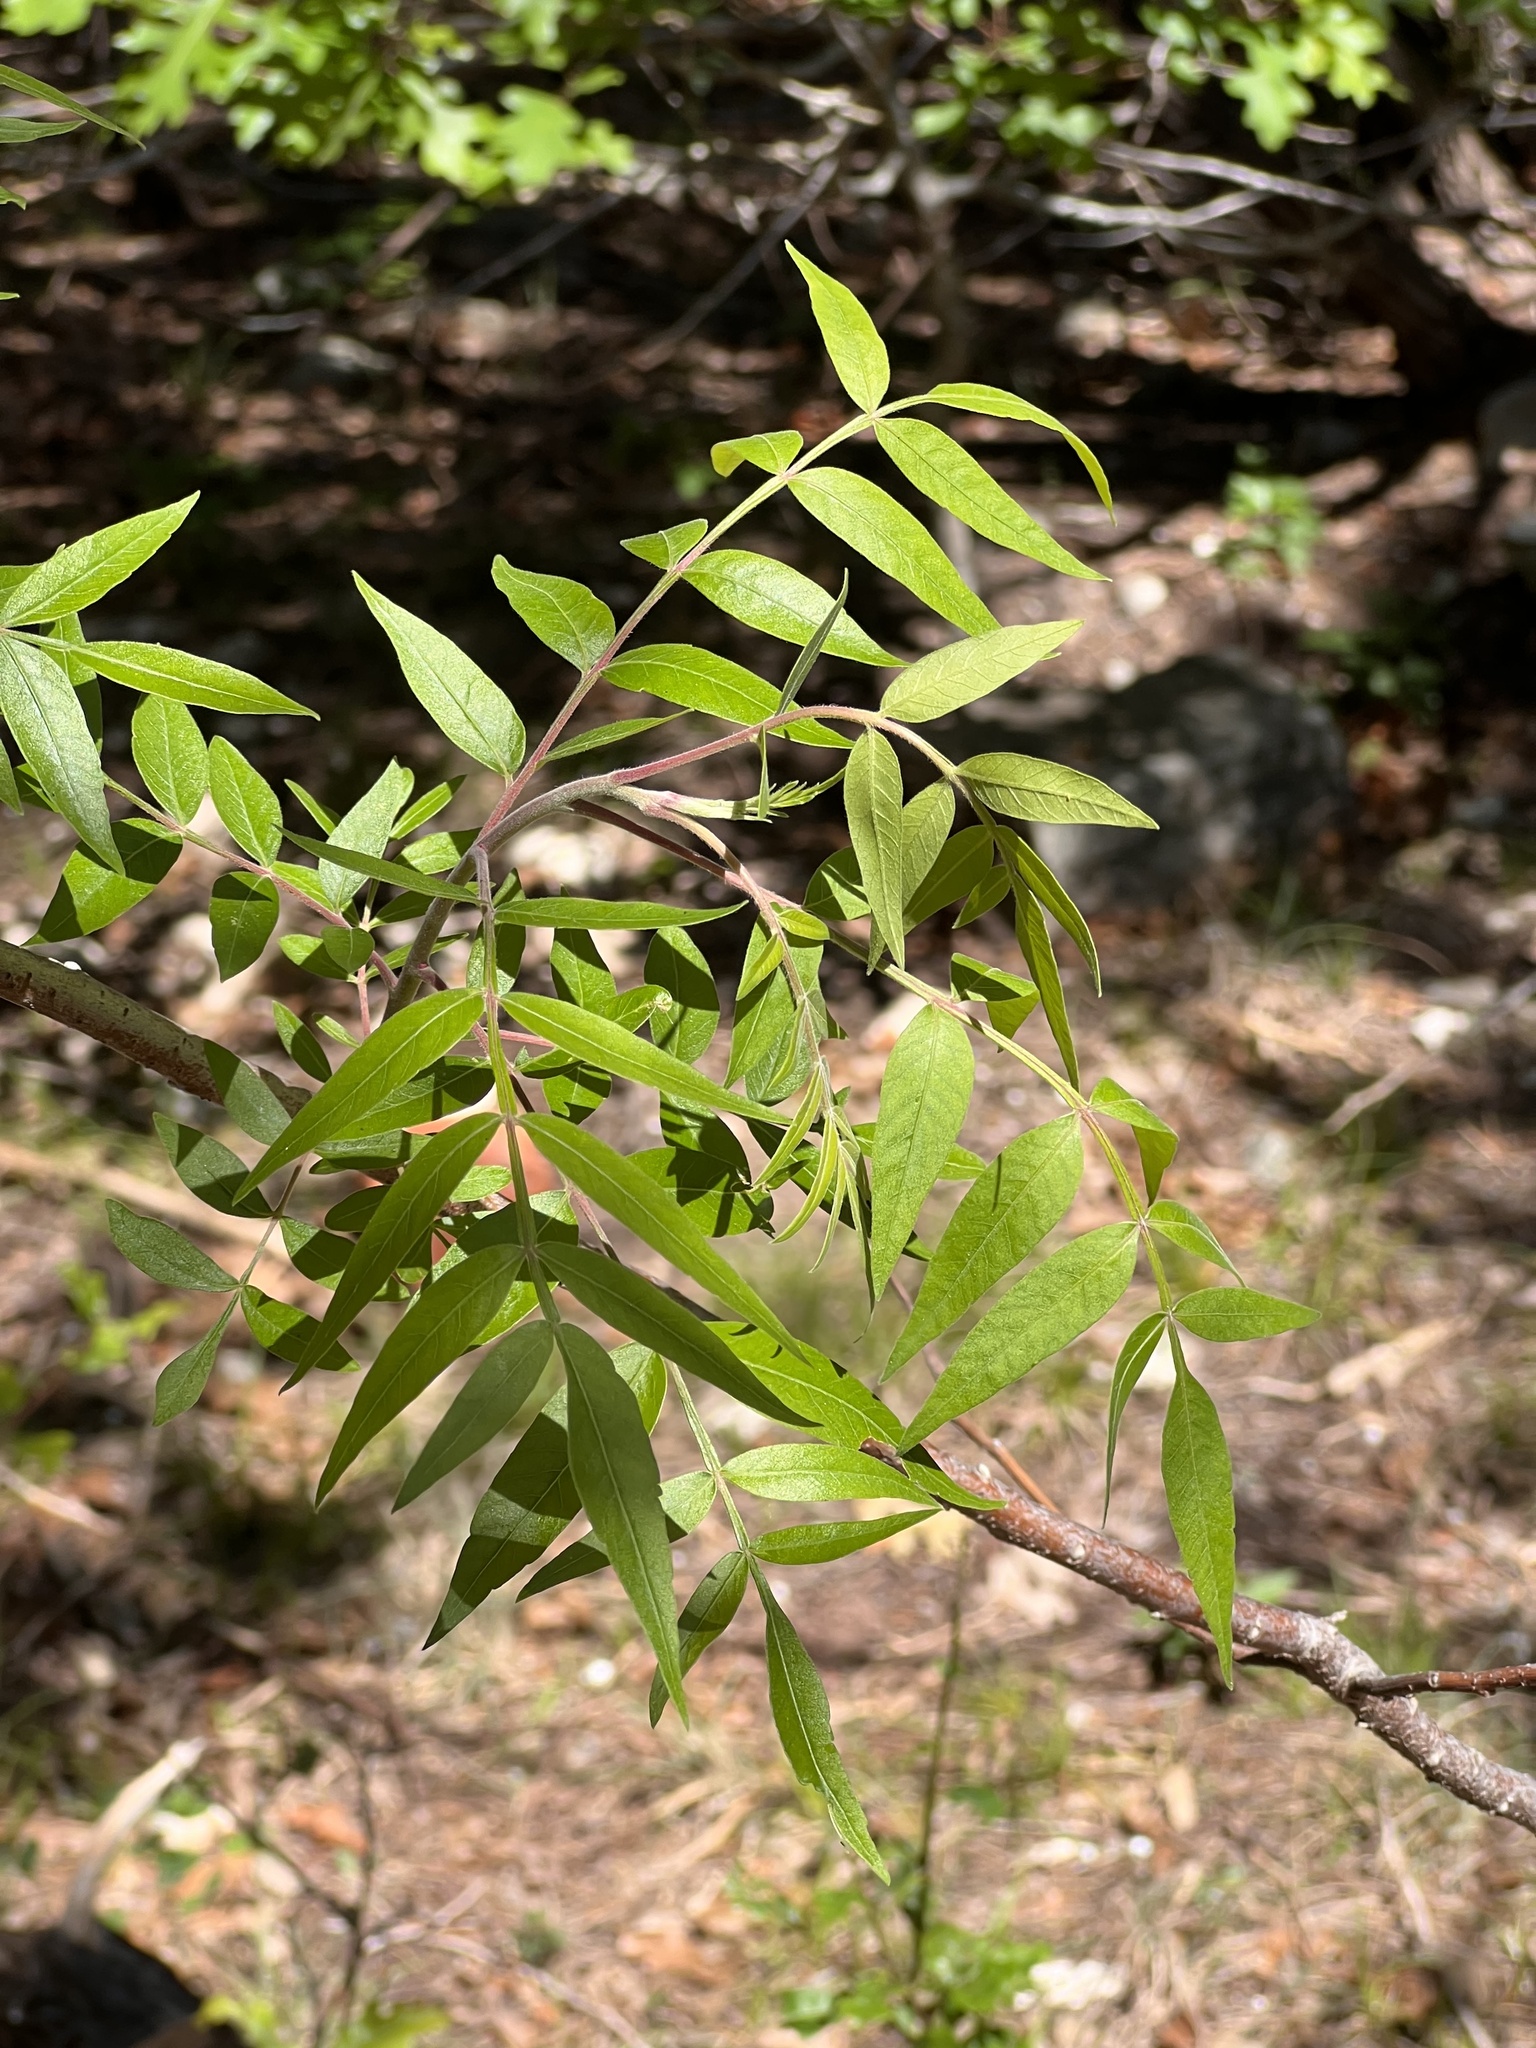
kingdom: Plantae
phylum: Tracheophyta
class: Magnoliopsida
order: Sapindales
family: Anacardiaceae
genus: Rhus
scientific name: Rhus lanceolata
